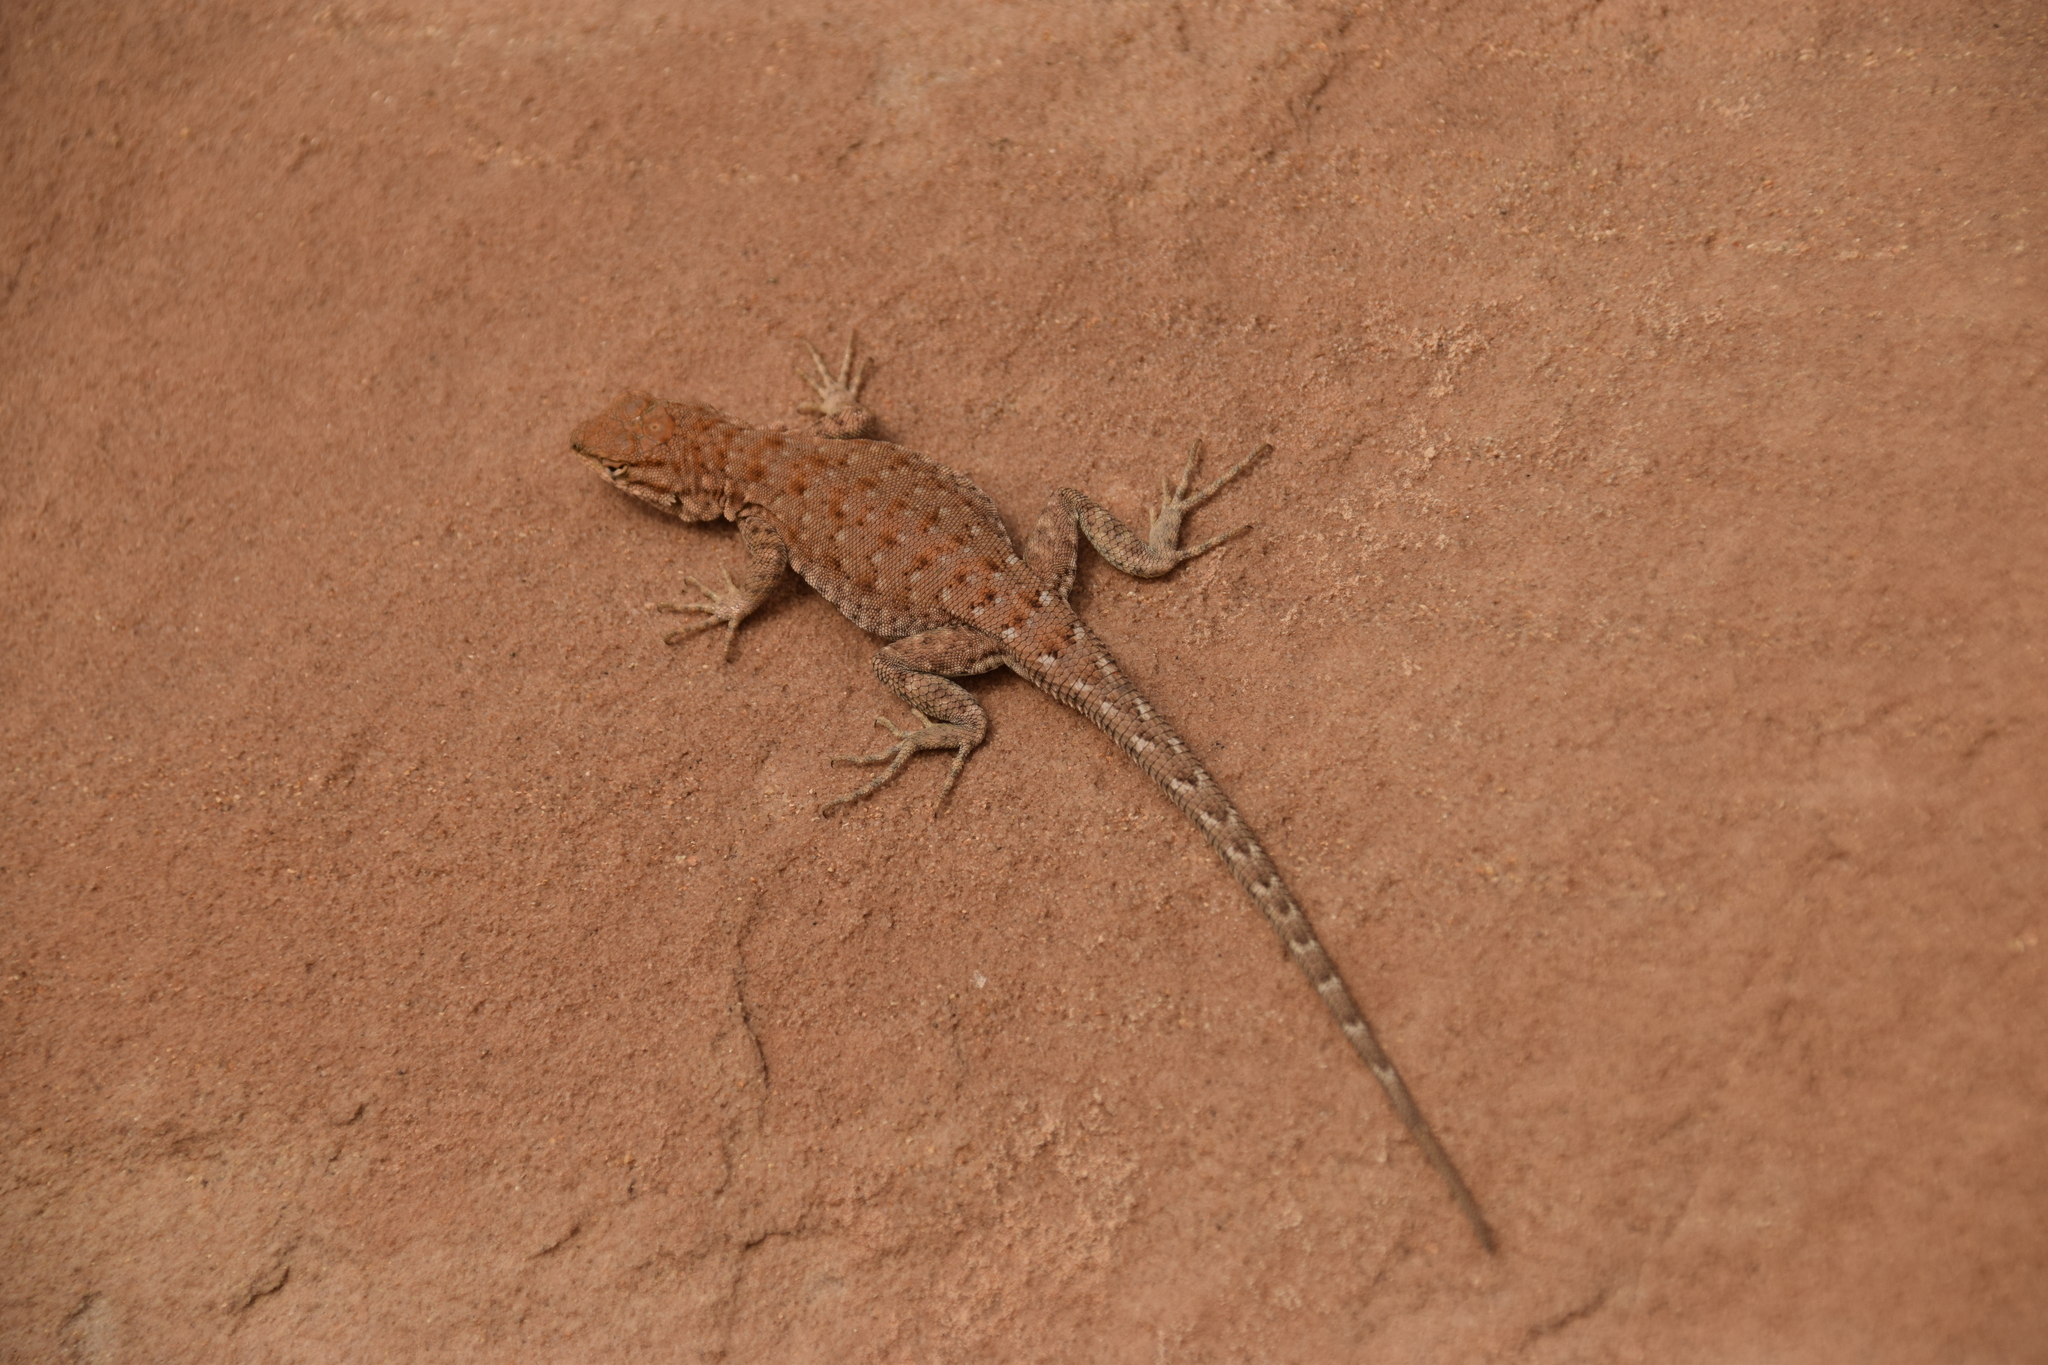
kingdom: Animalia
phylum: Chordata
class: Squamata
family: Phrynosomatidae
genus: Uta
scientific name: Uta stansburiana
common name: Side-blotched lizard
